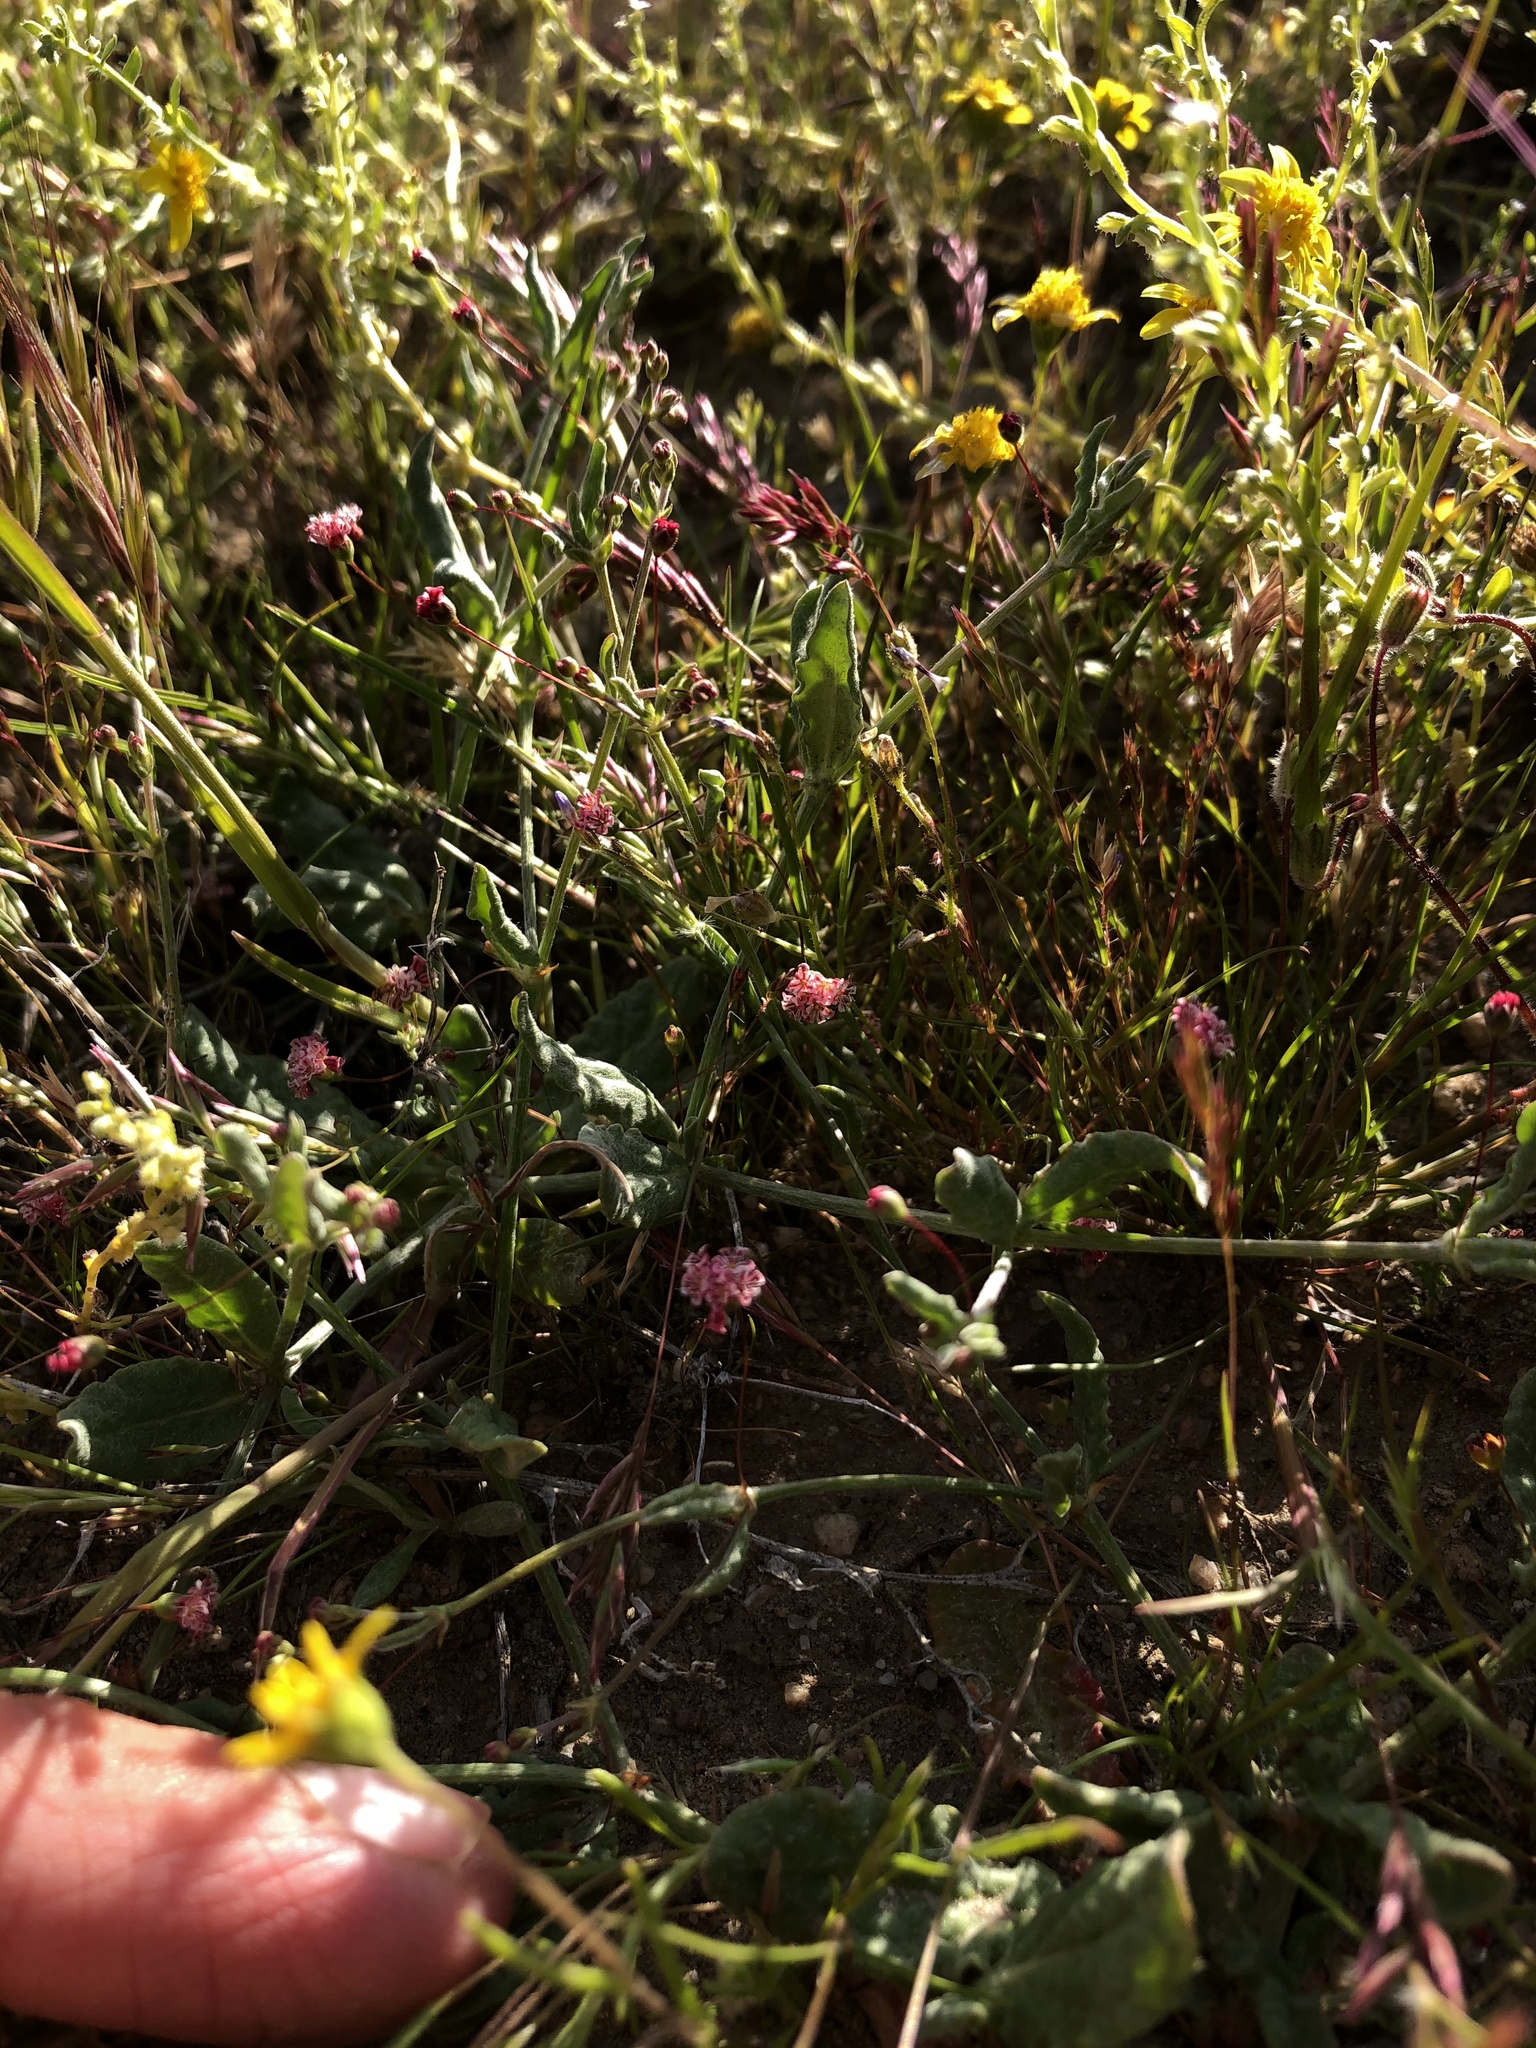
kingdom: Plantae
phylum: Tracheophyta
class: Magnoliopsida
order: Caryophyllales
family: Polygonaceae
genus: Eriogonum
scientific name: Eriogonum angulosum
